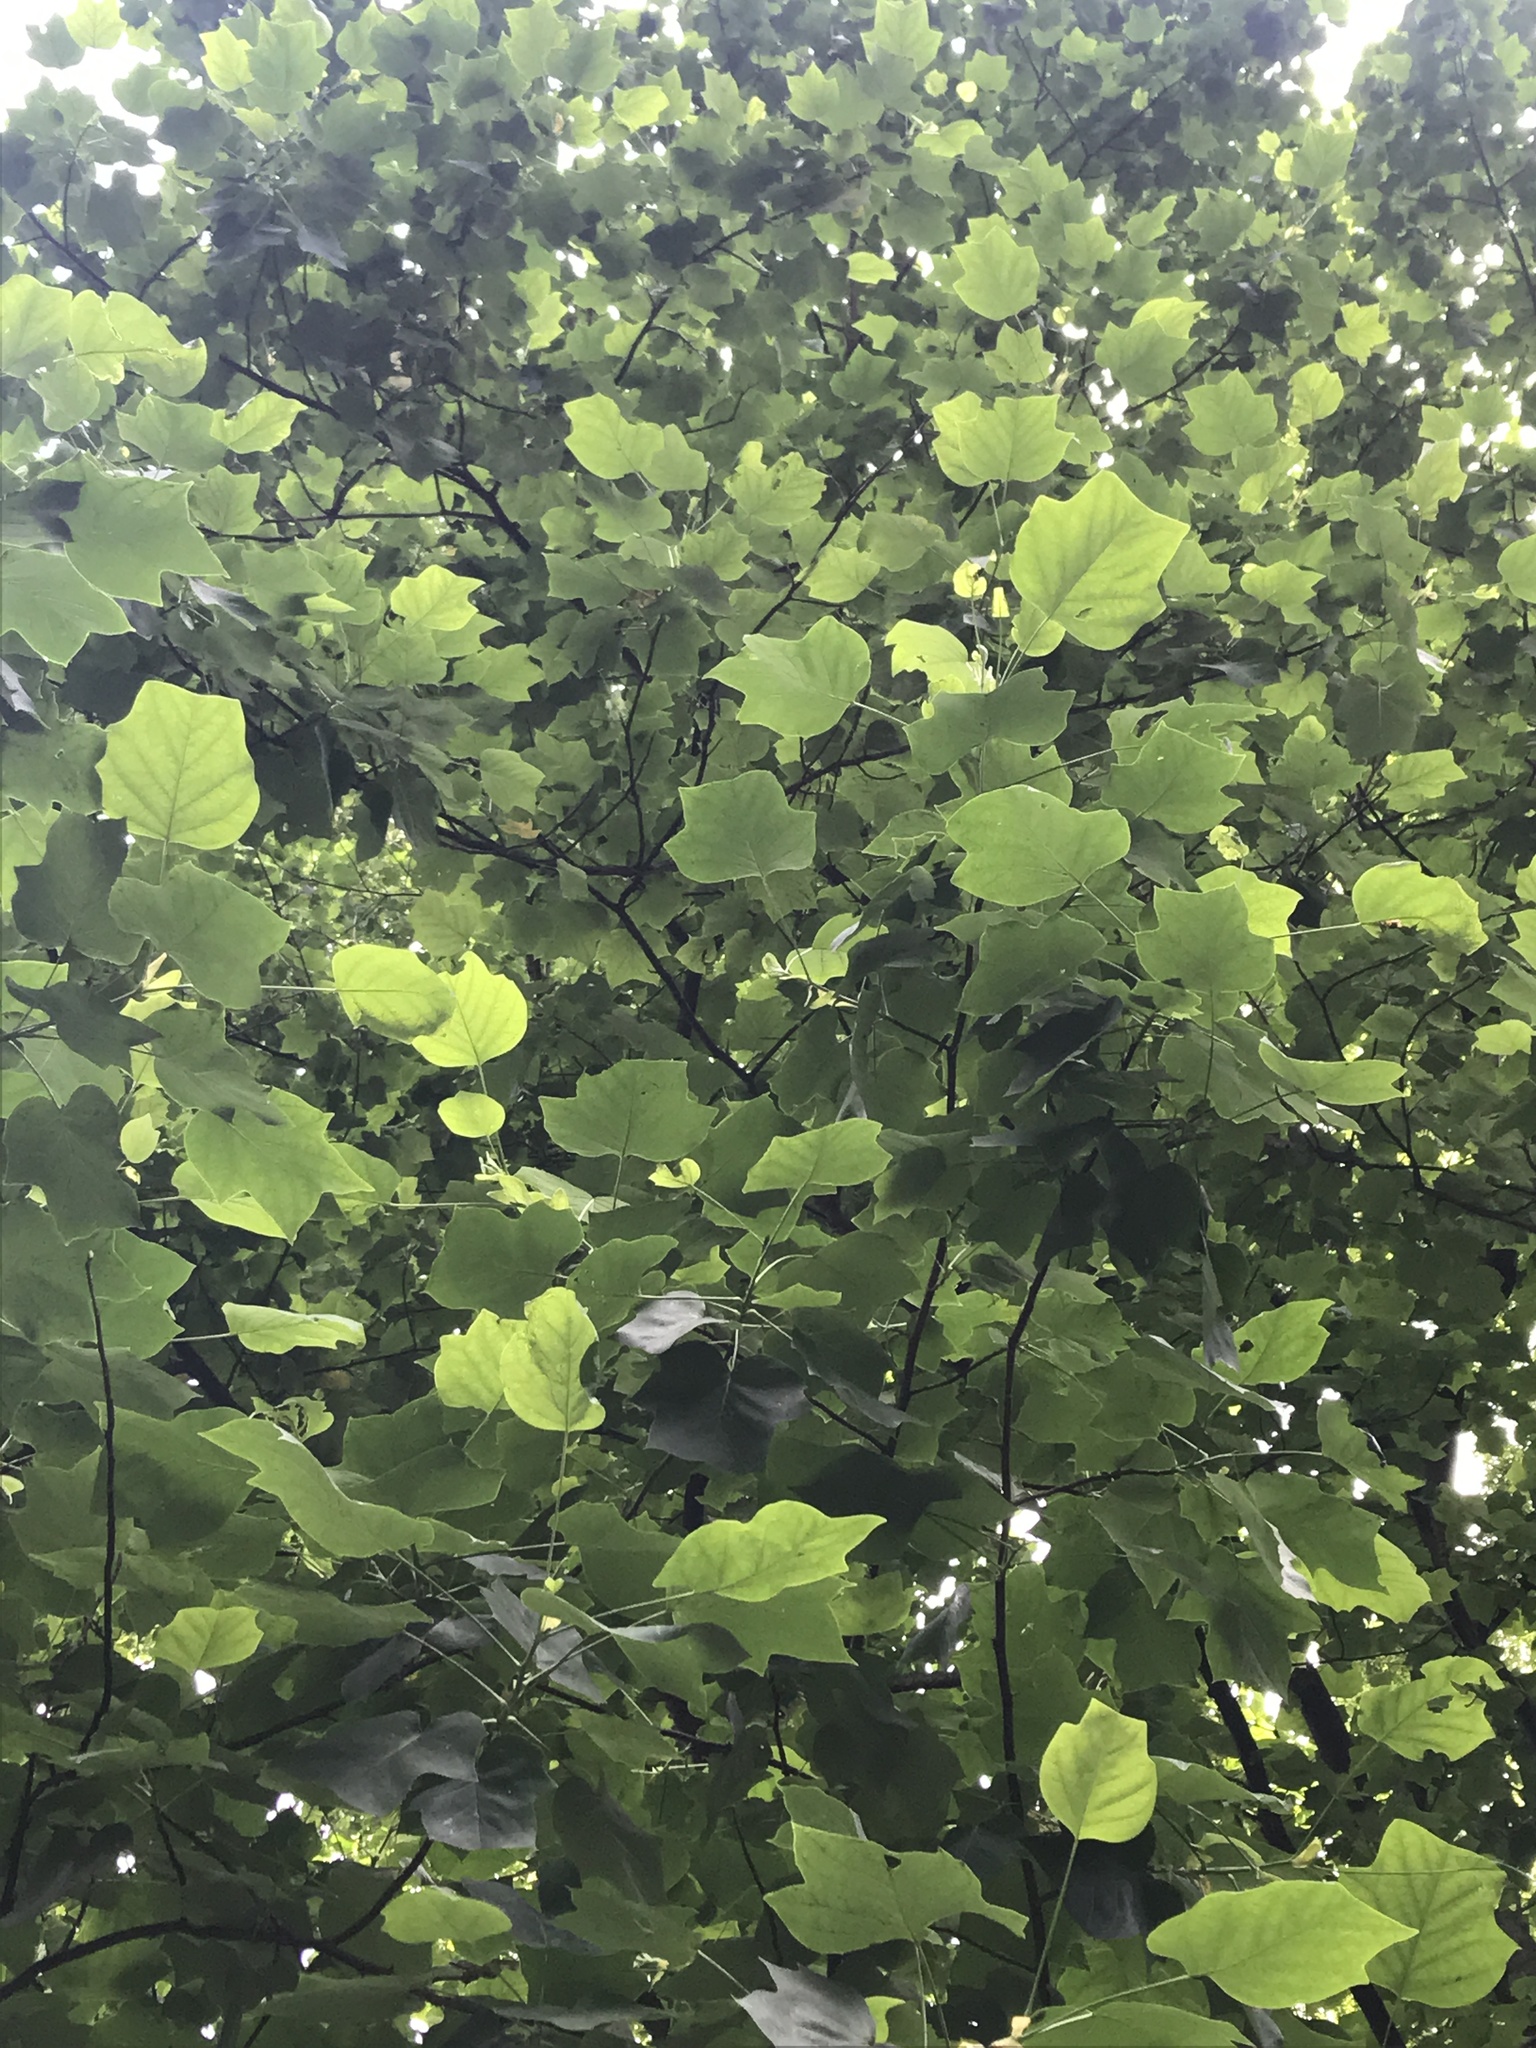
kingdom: Plantae
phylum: Tracheophyta
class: Magnoliopsida
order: Magnoliales
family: Magnoliaceae
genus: Liriodendron
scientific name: Liriodendron tulipifera
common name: Tulip tree
